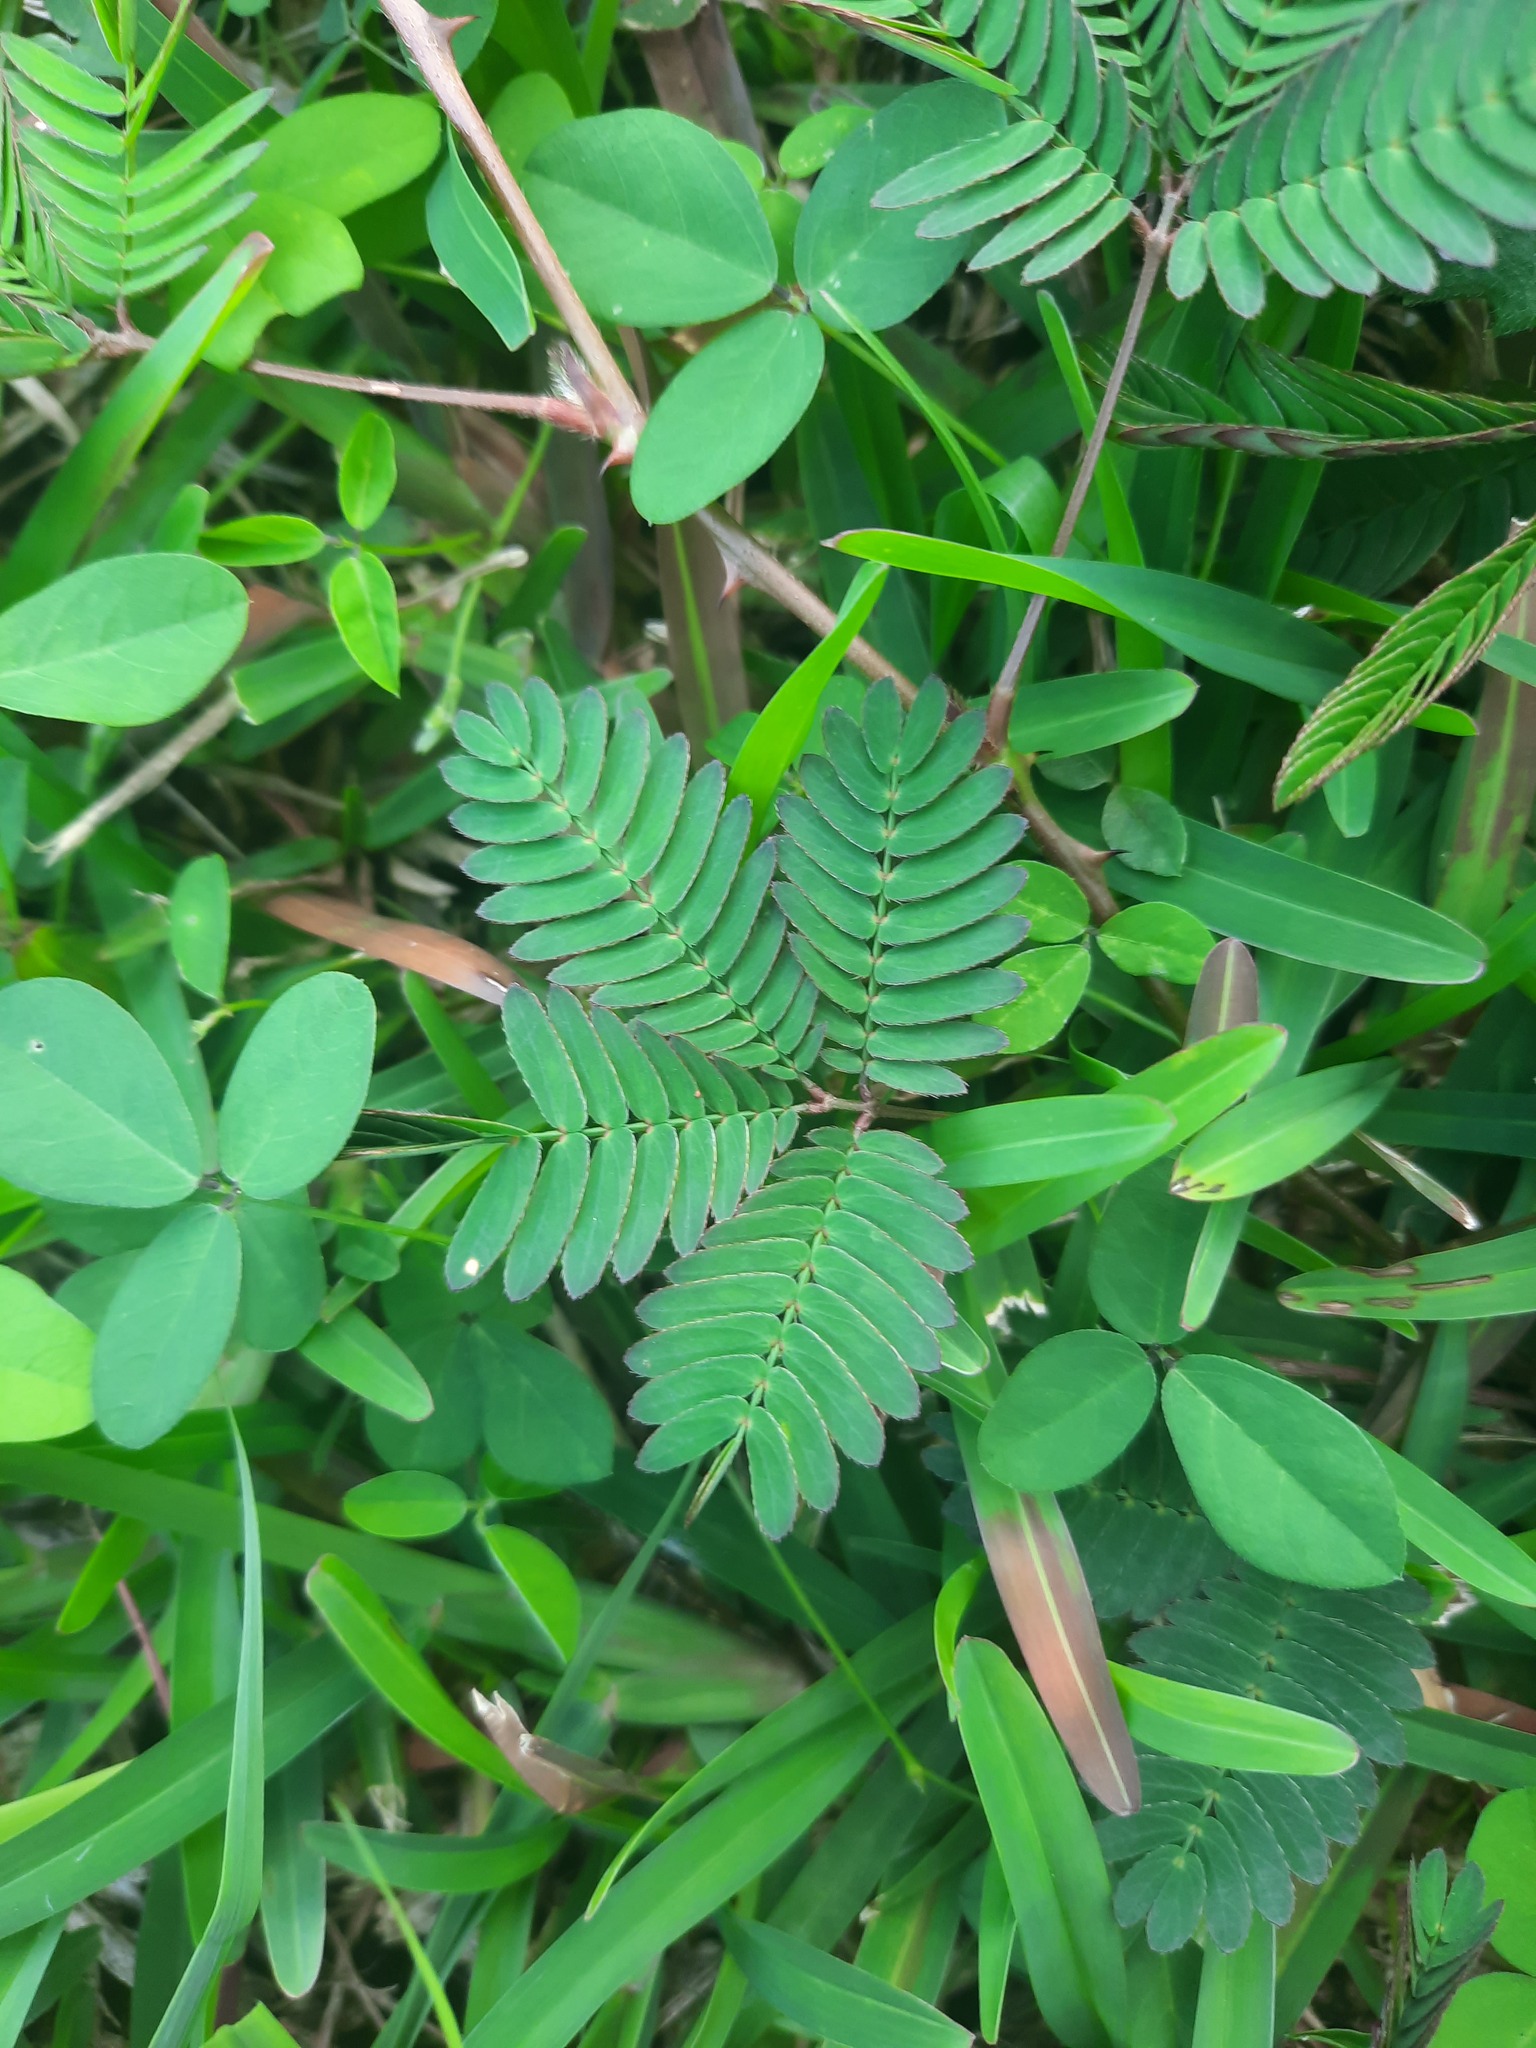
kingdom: Plantae
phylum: Tracheophyta
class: Magnoliopsida
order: Fabales
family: Fabaceae
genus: Mimosa
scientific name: Mimosa pudica
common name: Sensitive plant
